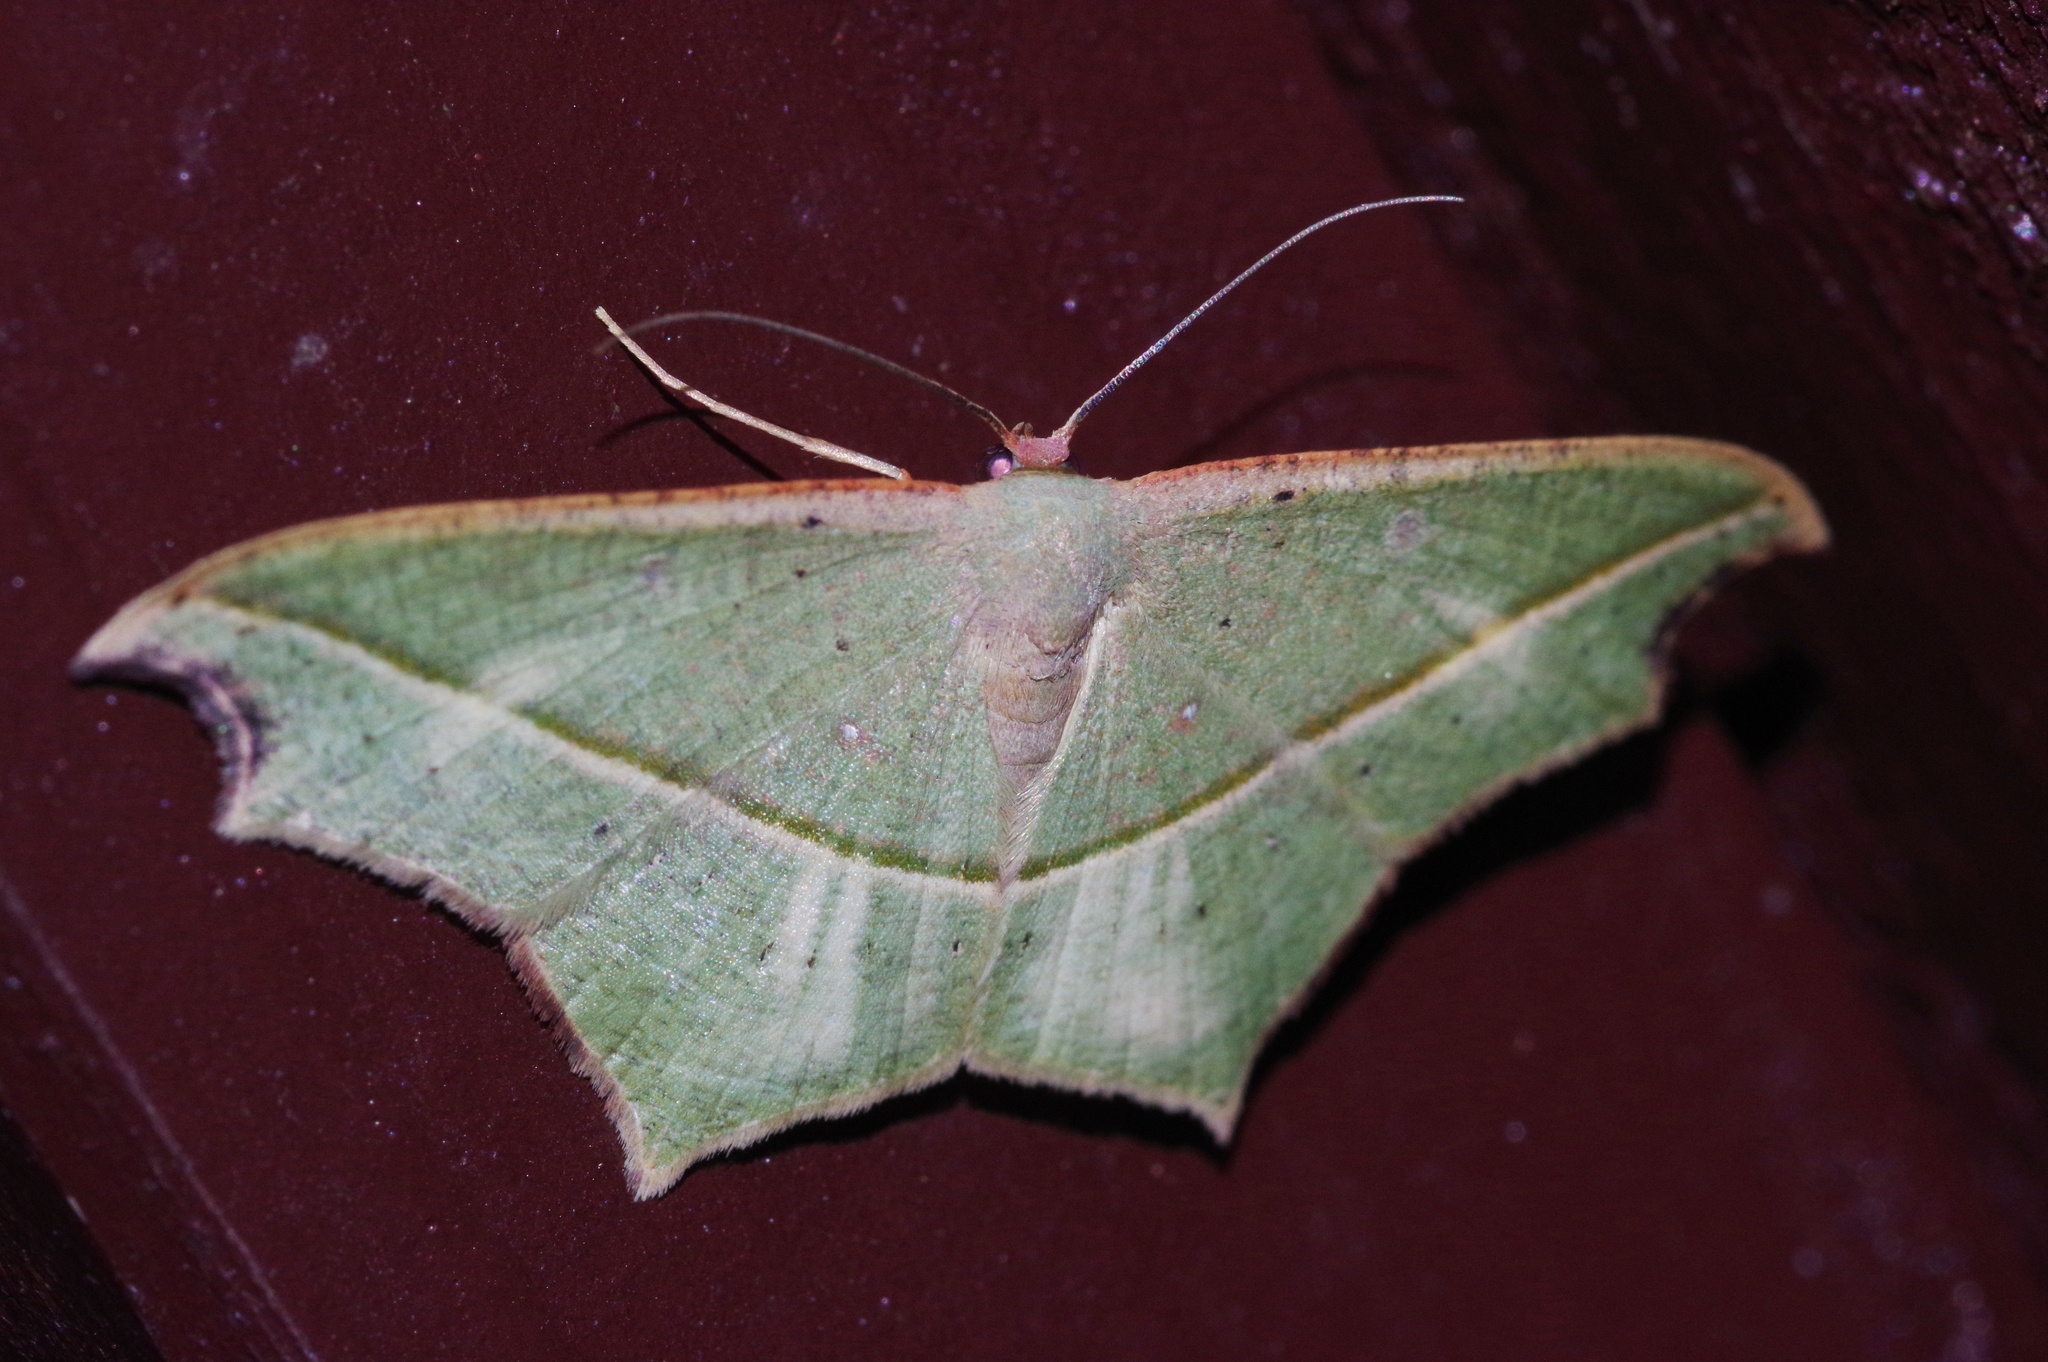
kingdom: Animalia
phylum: Arthropoda
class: Insecta
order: Lepidoptera
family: Geometridae
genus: Traminda
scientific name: Traminda aventiaria
